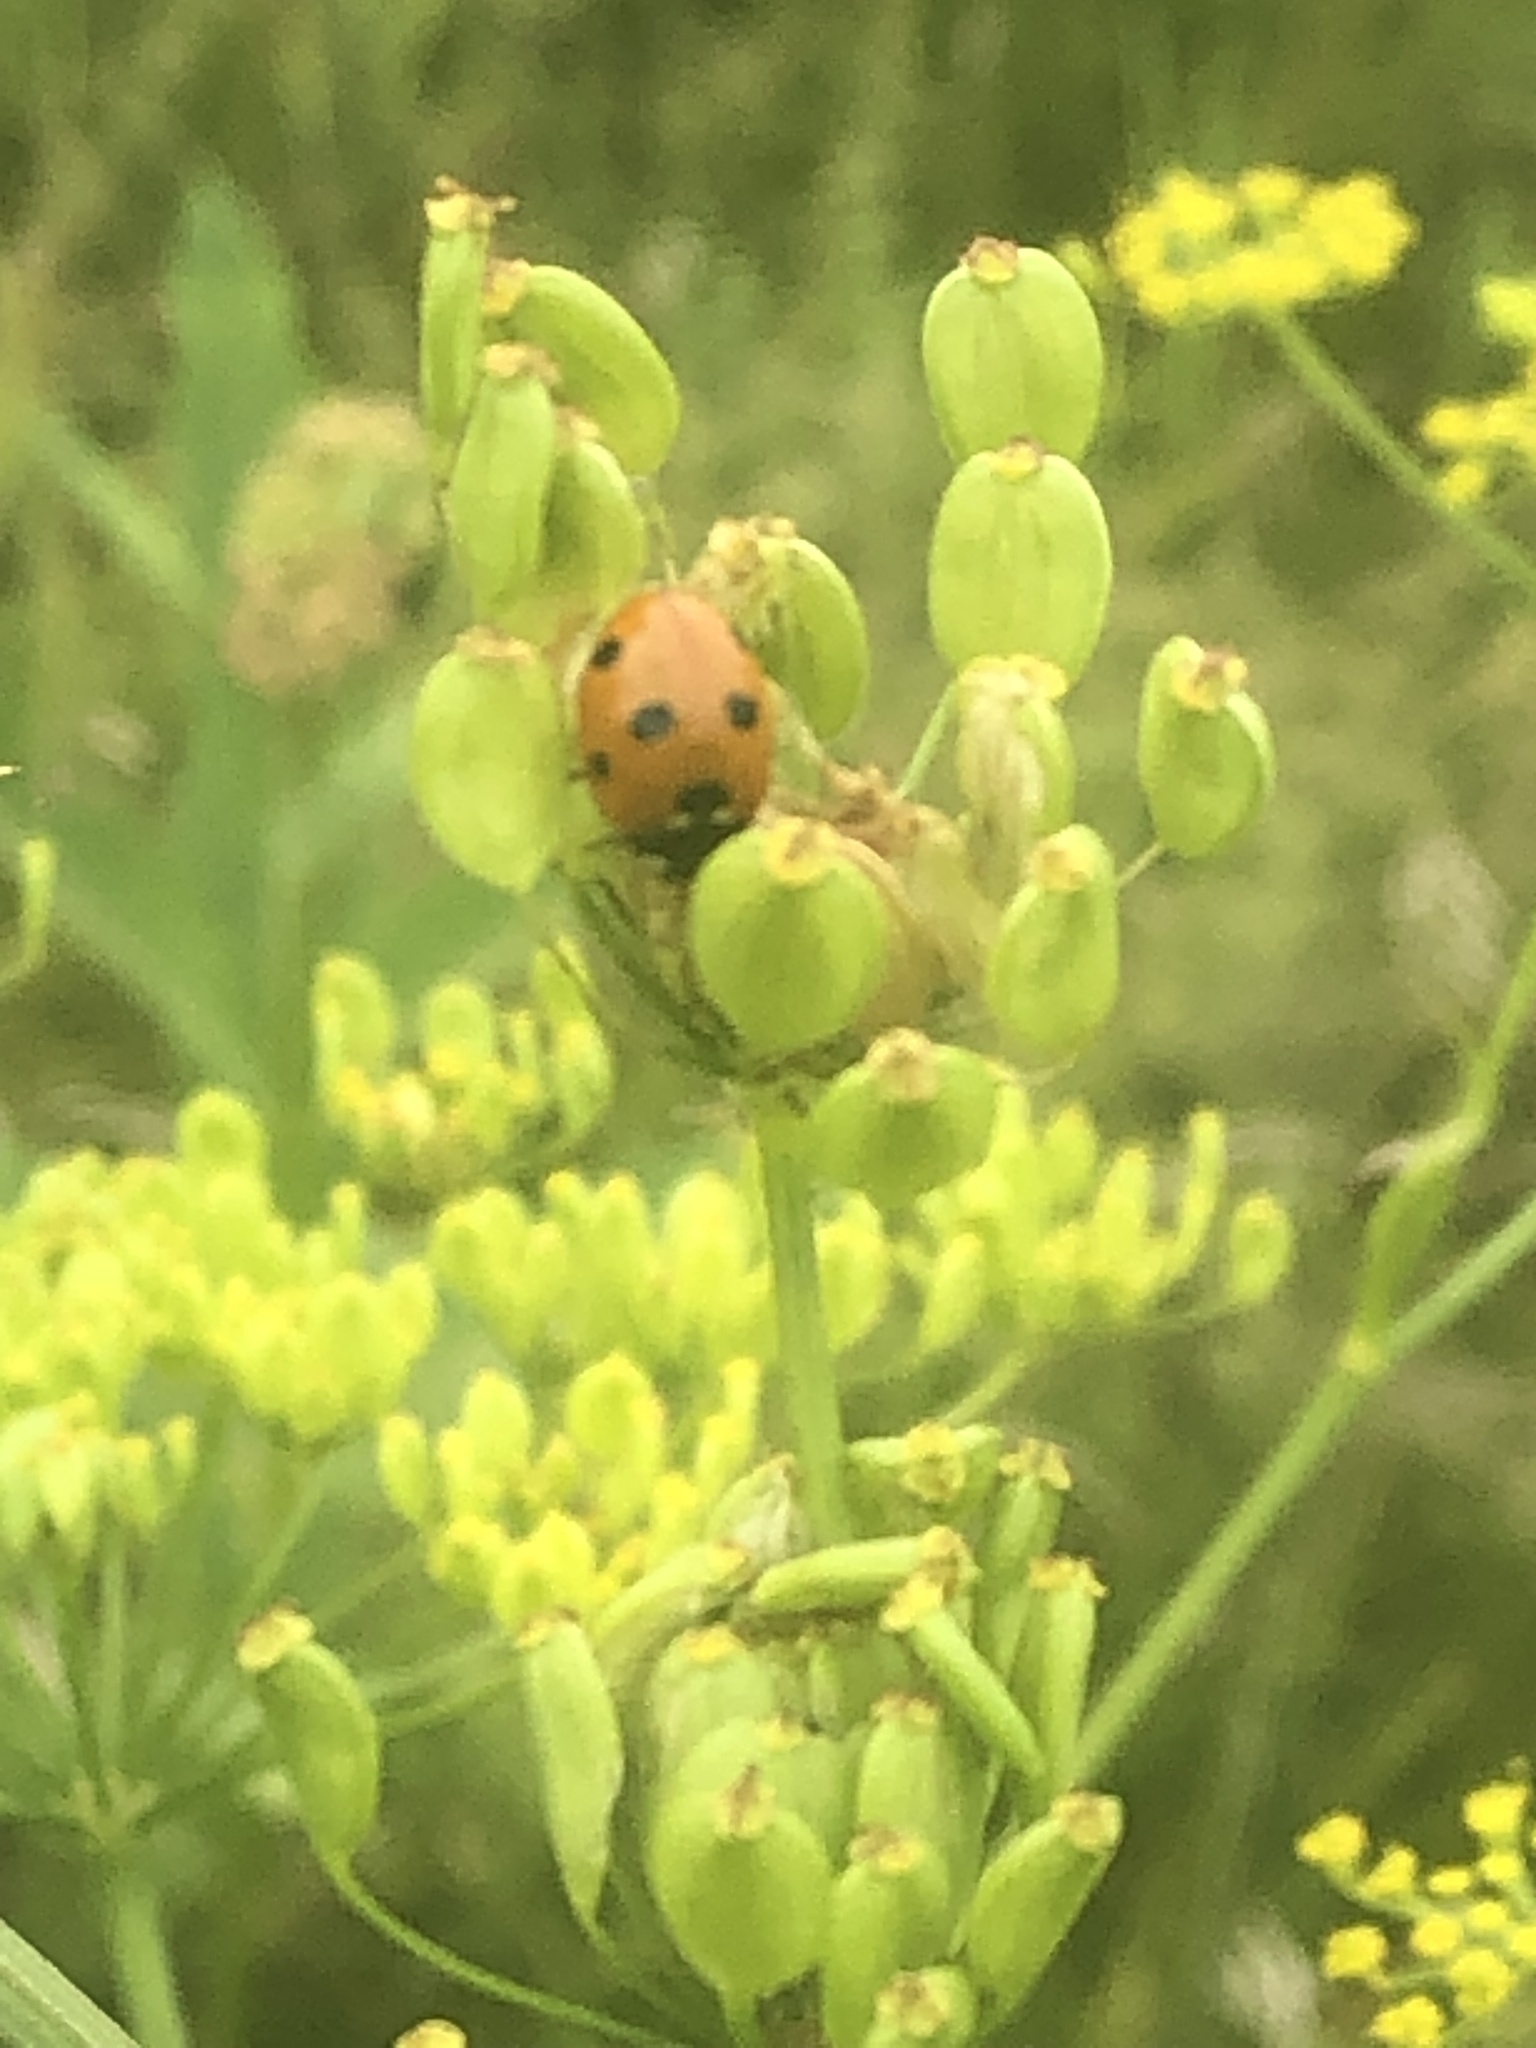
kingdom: Animalia
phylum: Arthropoda
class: Insecta
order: Coleoptera
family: Coccinellidae
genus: Coccinella
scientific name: Coccinella septempunctata
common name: Sevenspotted lady beetle
